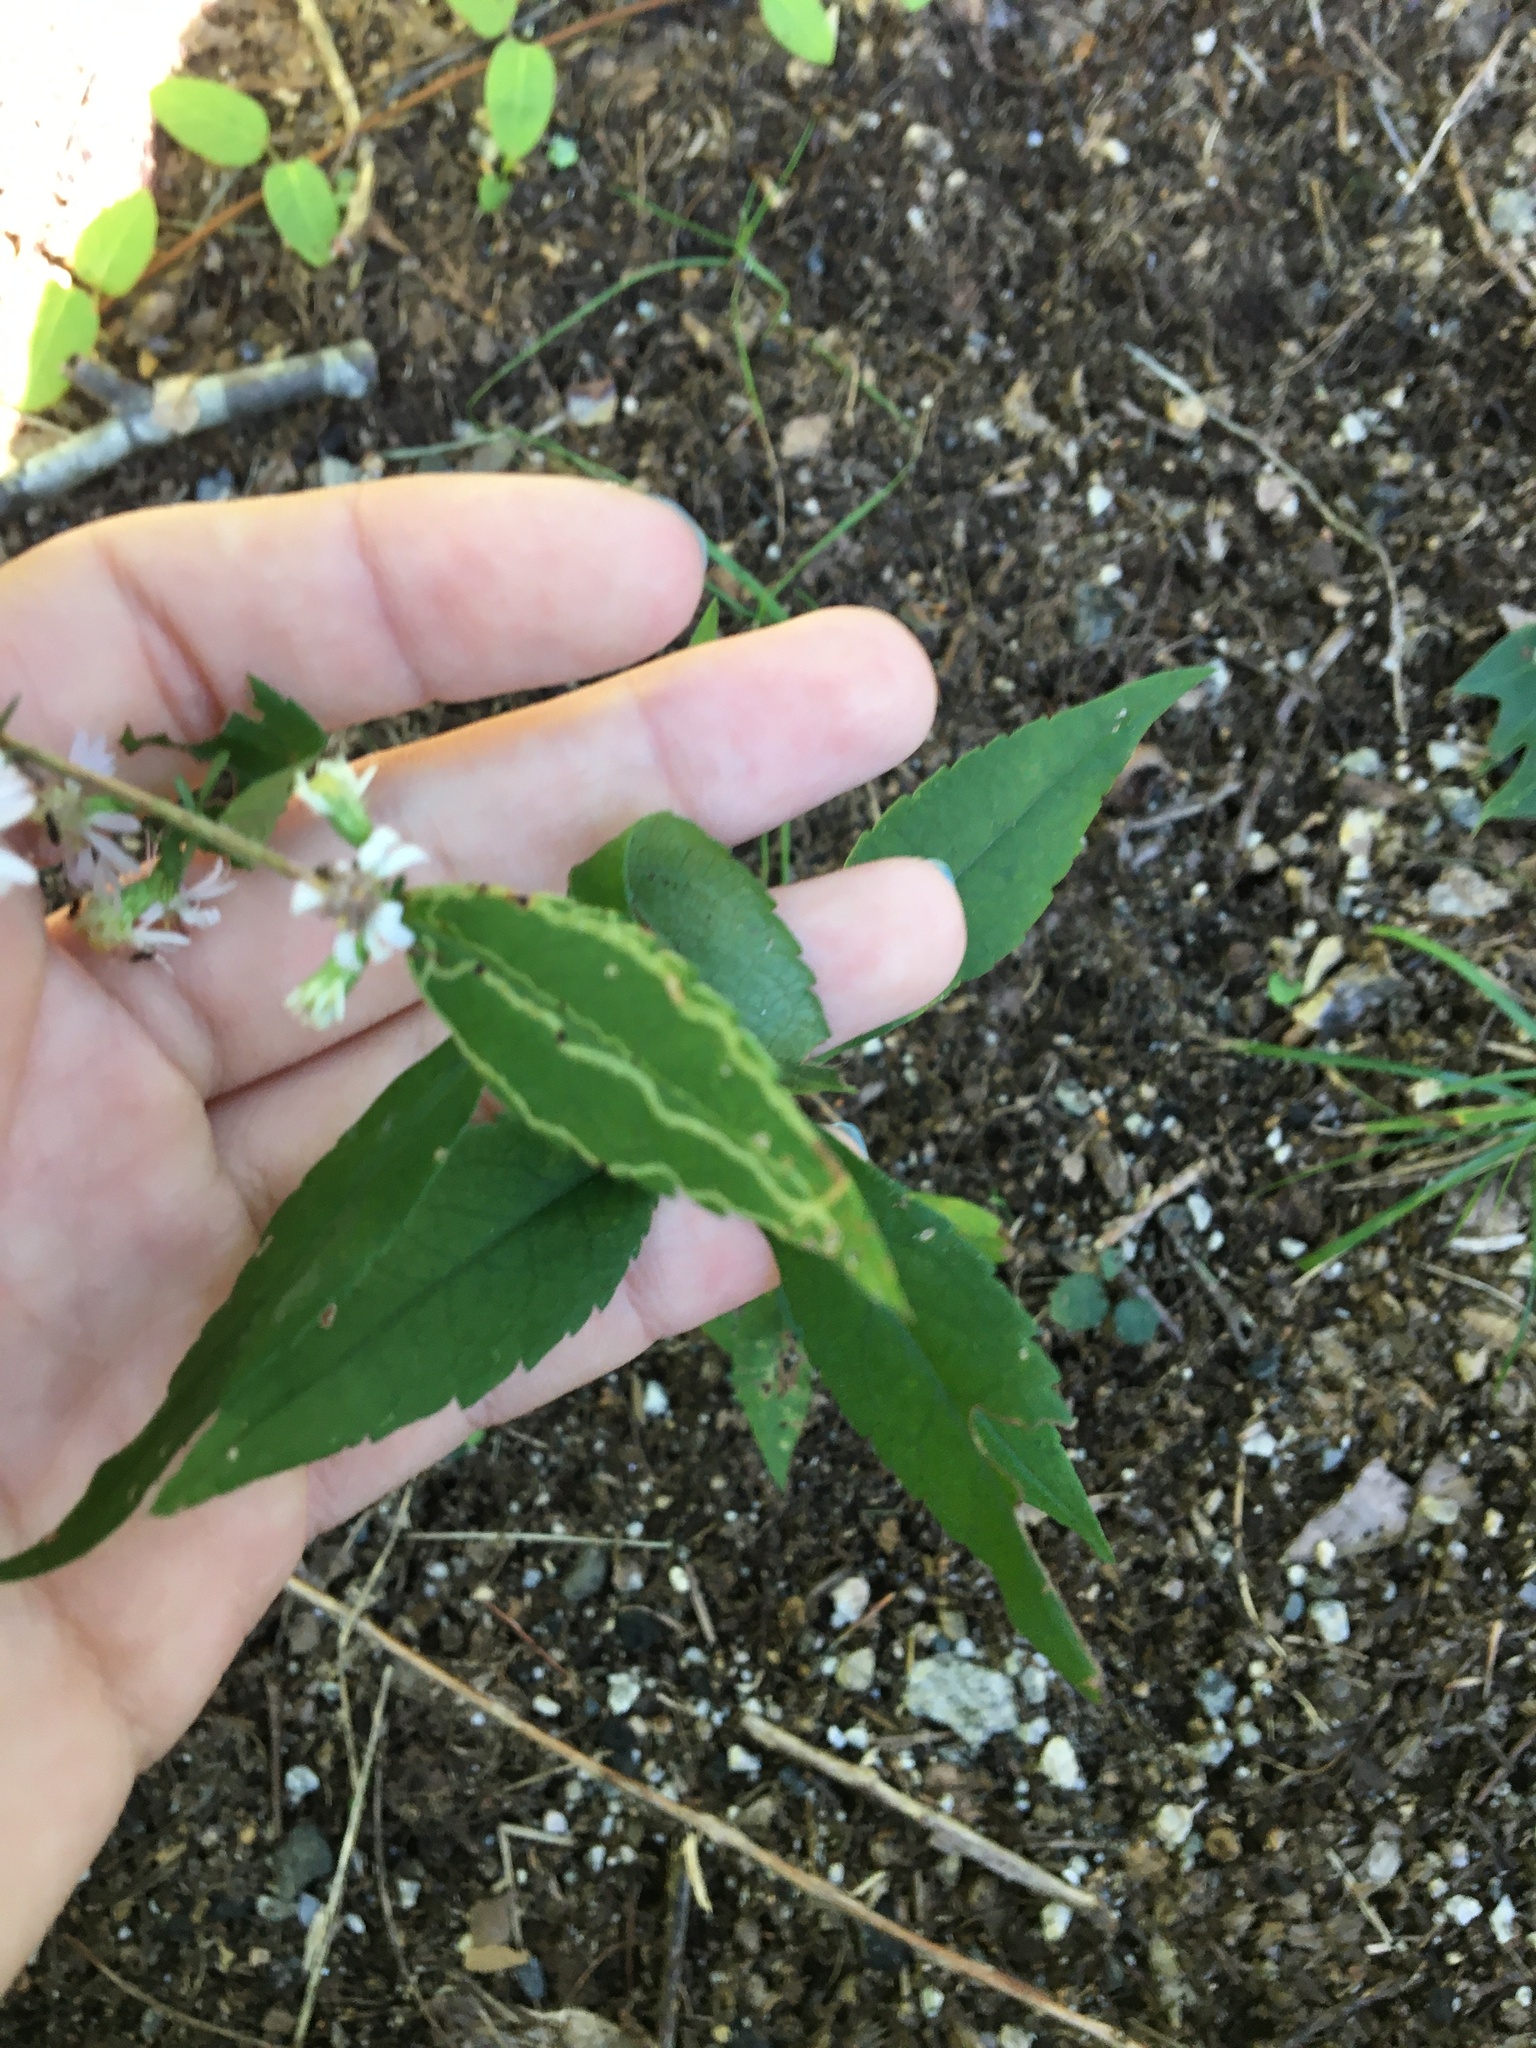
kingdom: Animalia
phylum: Arthropoda
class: Insecta
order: Diptera
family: Agromyzidae
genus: Ophiomyia
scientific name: Ophiomyia parda
